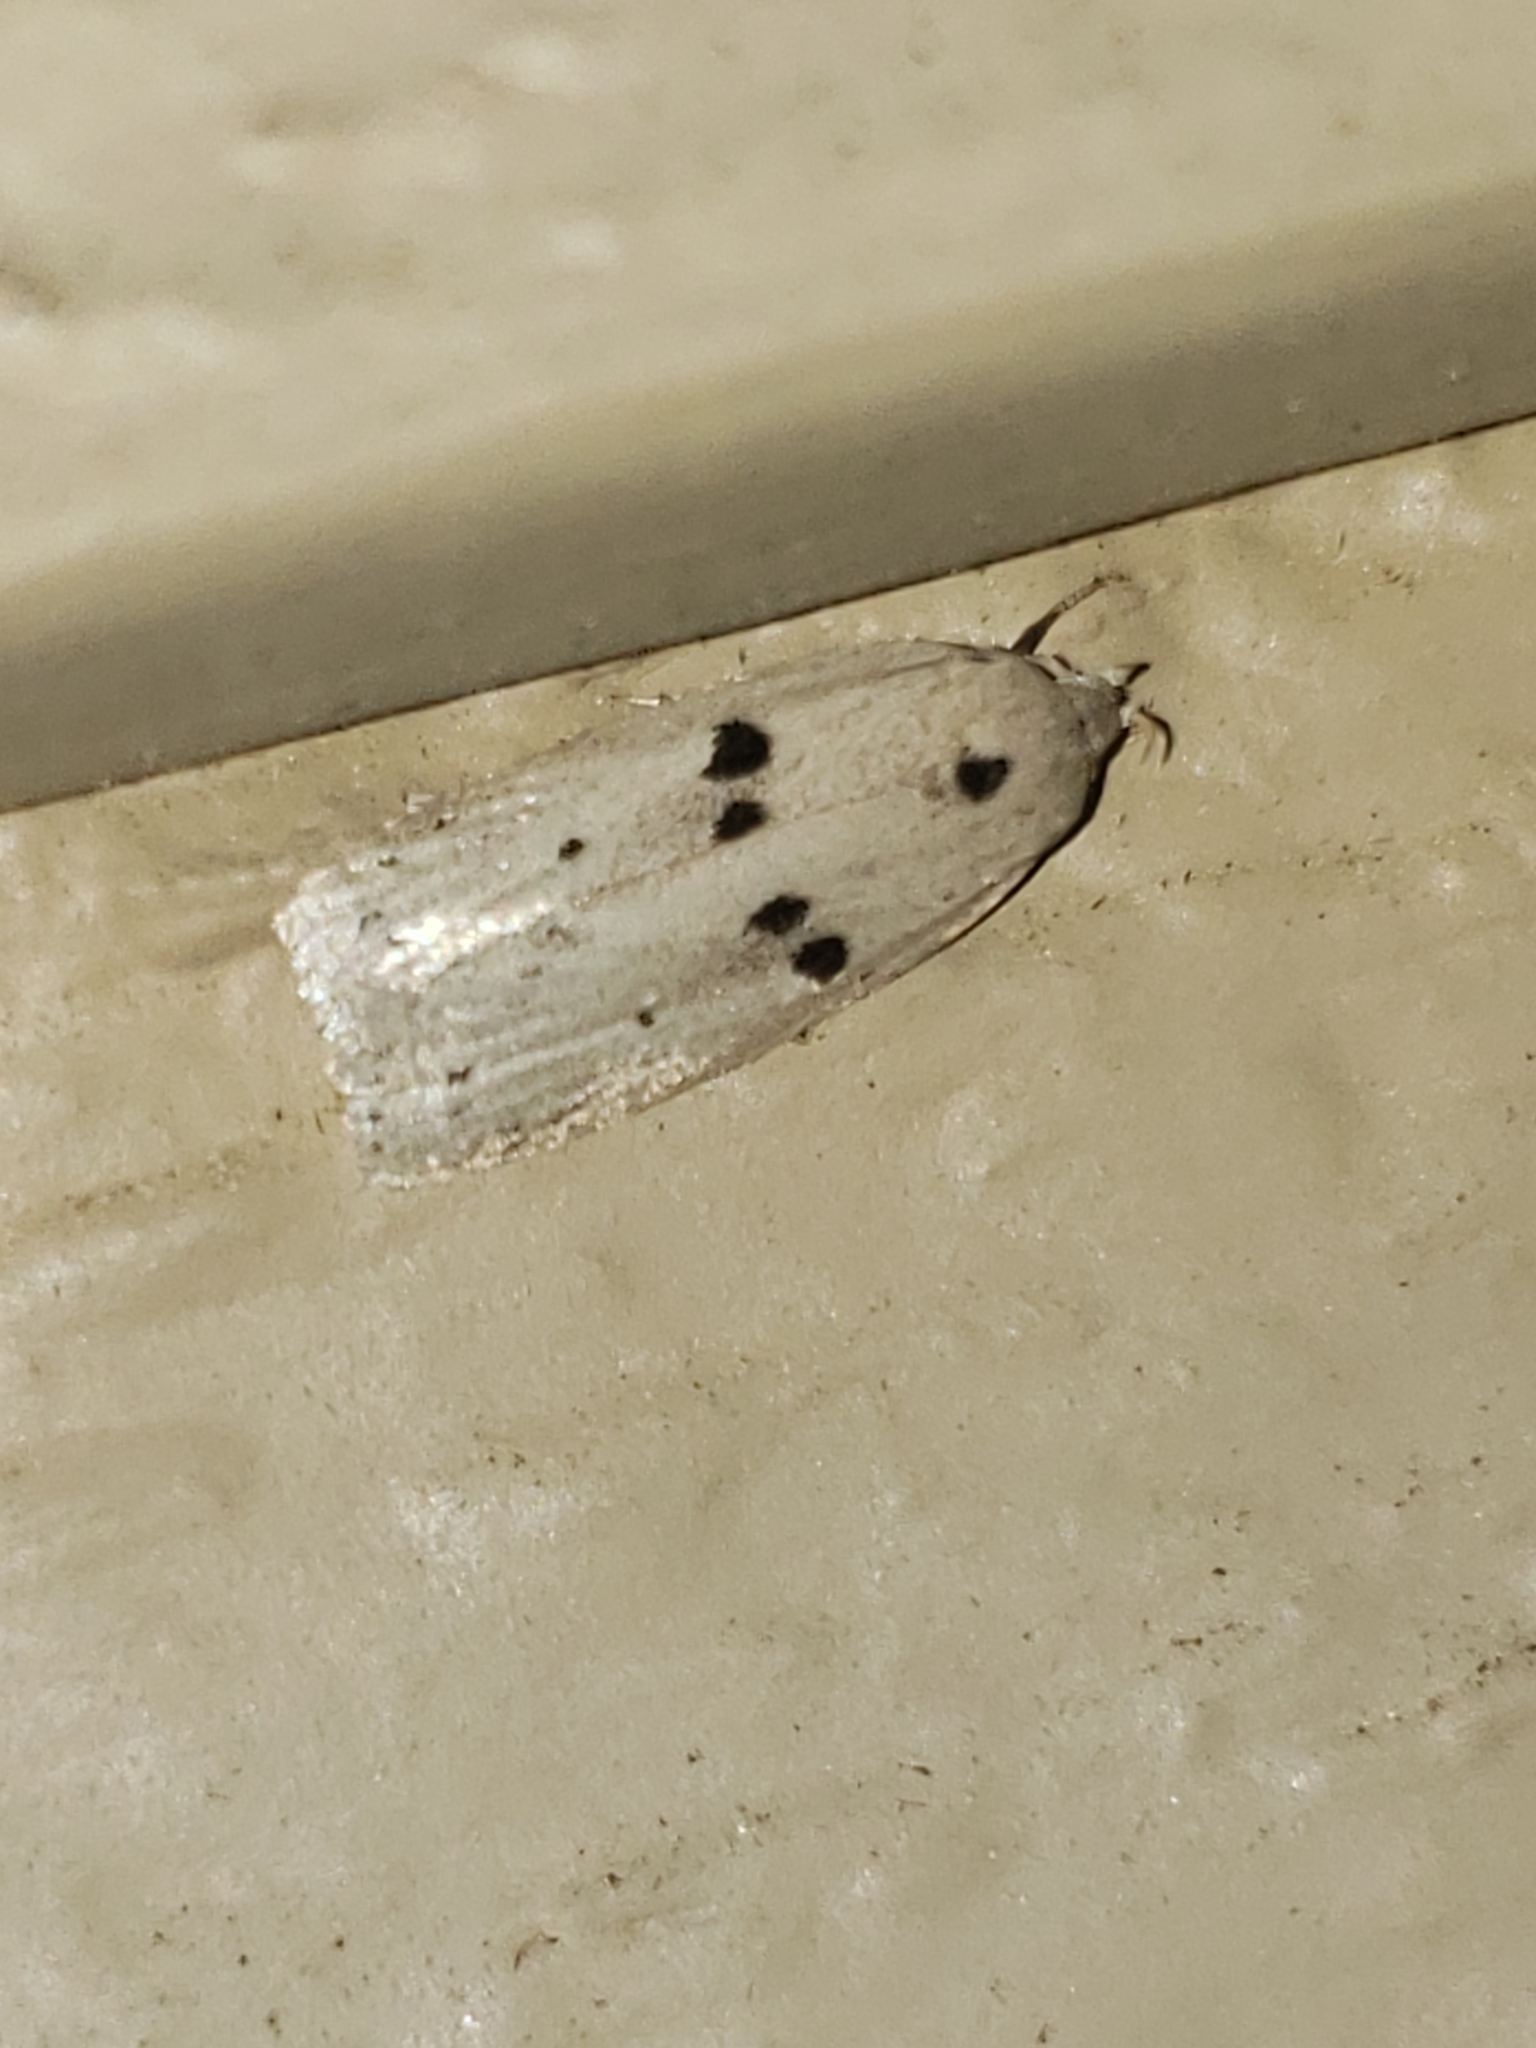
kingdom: Animalia
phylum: Arthropoda
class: Insecta
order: Lepidoptera
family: Peleopodidae
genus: Scythropiodes
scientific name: Scythropiodes issikii
